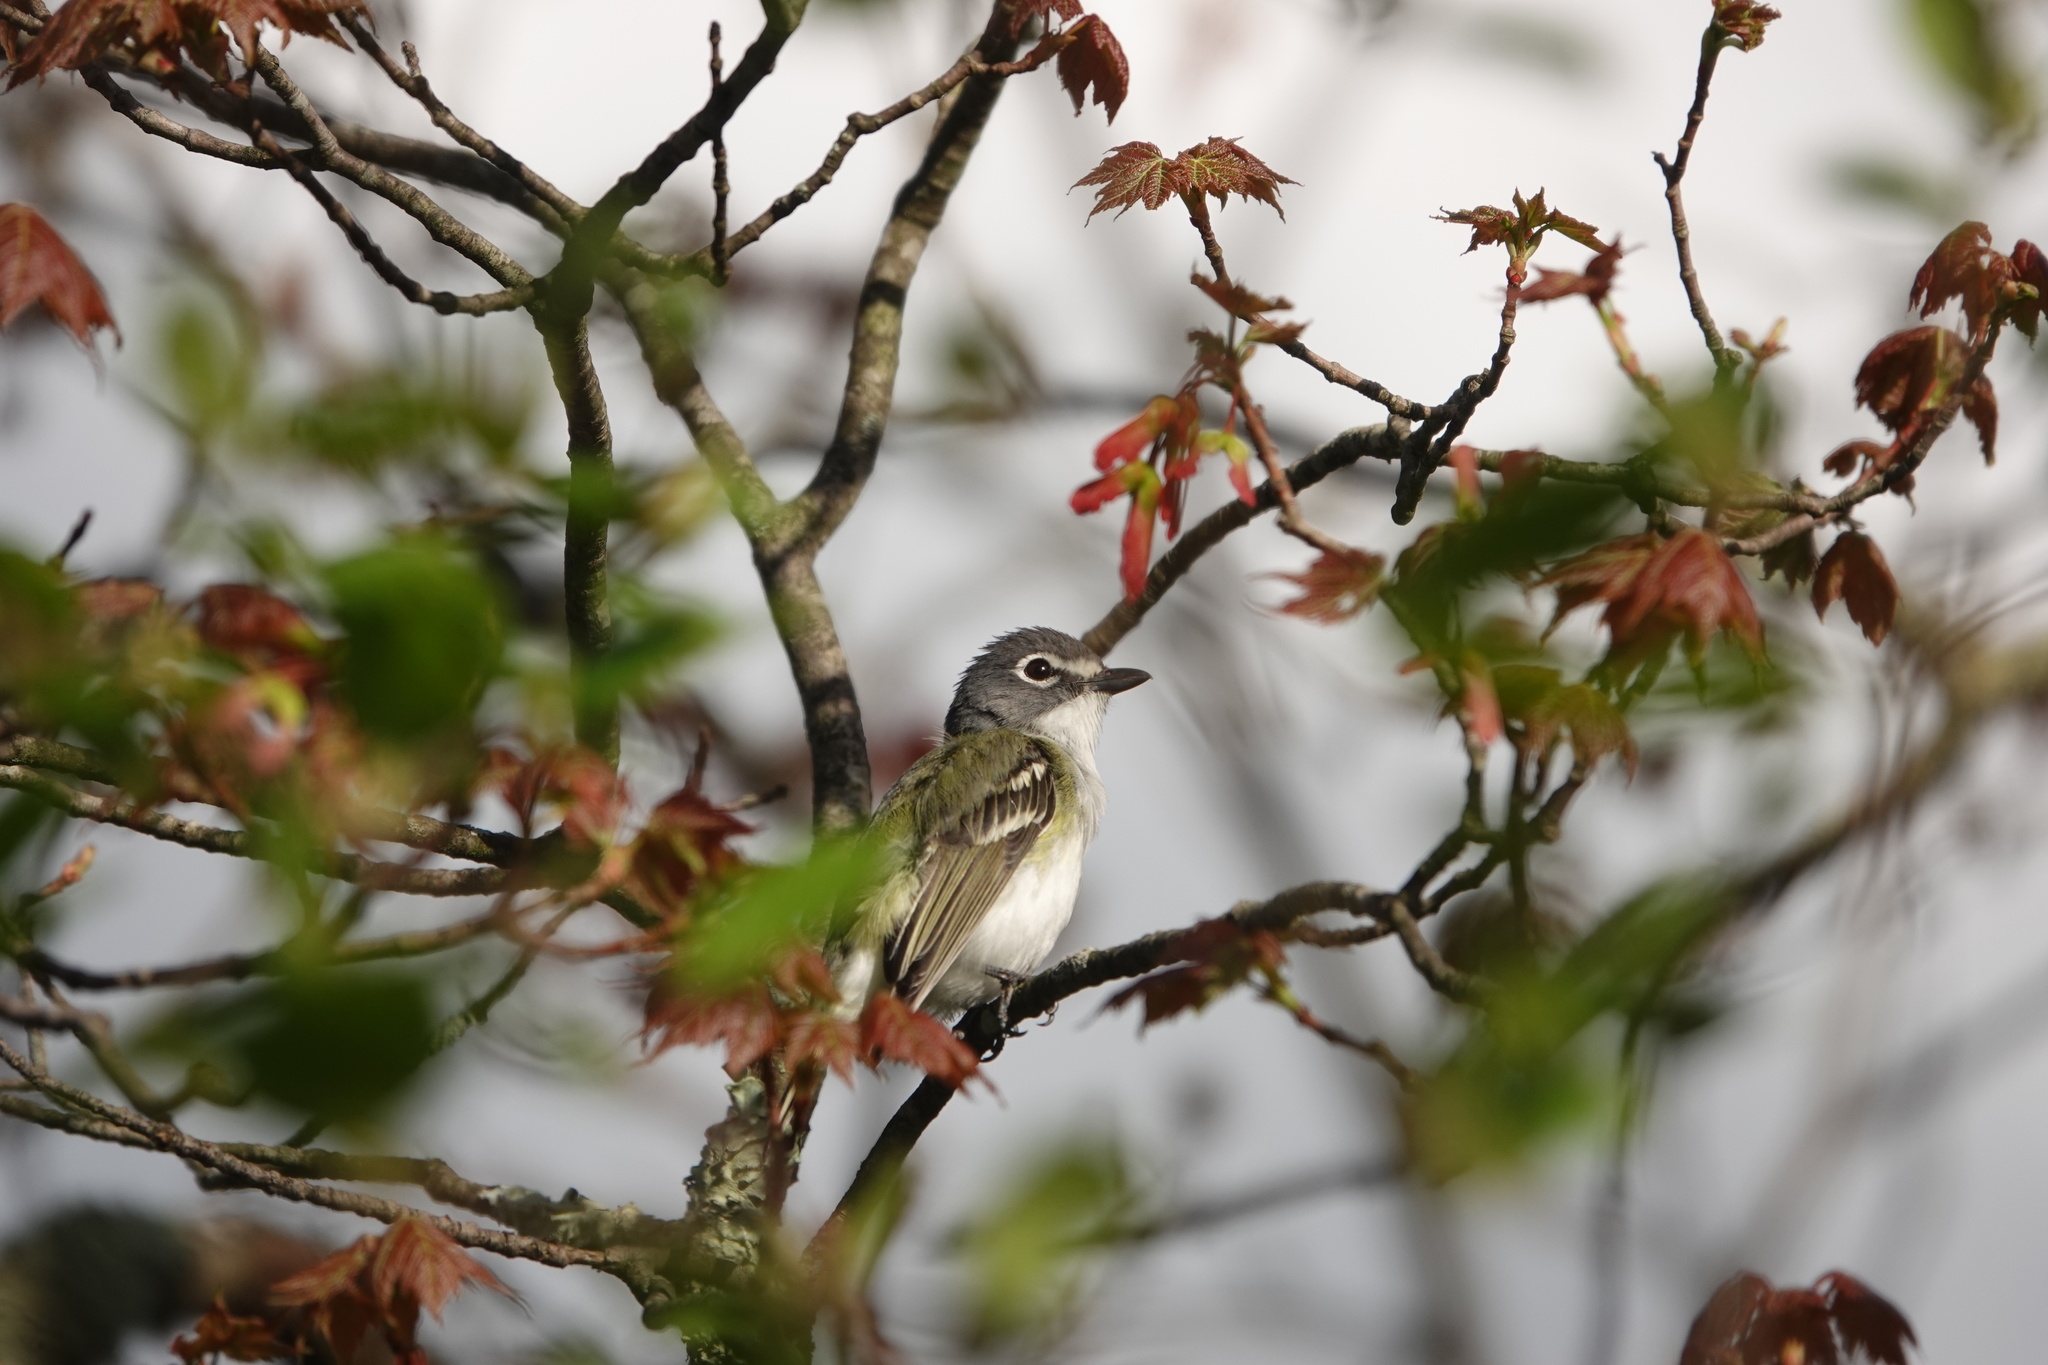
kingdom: Animalia
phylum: Chordata
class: Aves
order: Passeriformes
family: Vireonidae
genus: Vireo
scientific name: Vireo solitarius
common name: Blue-headed vireo
